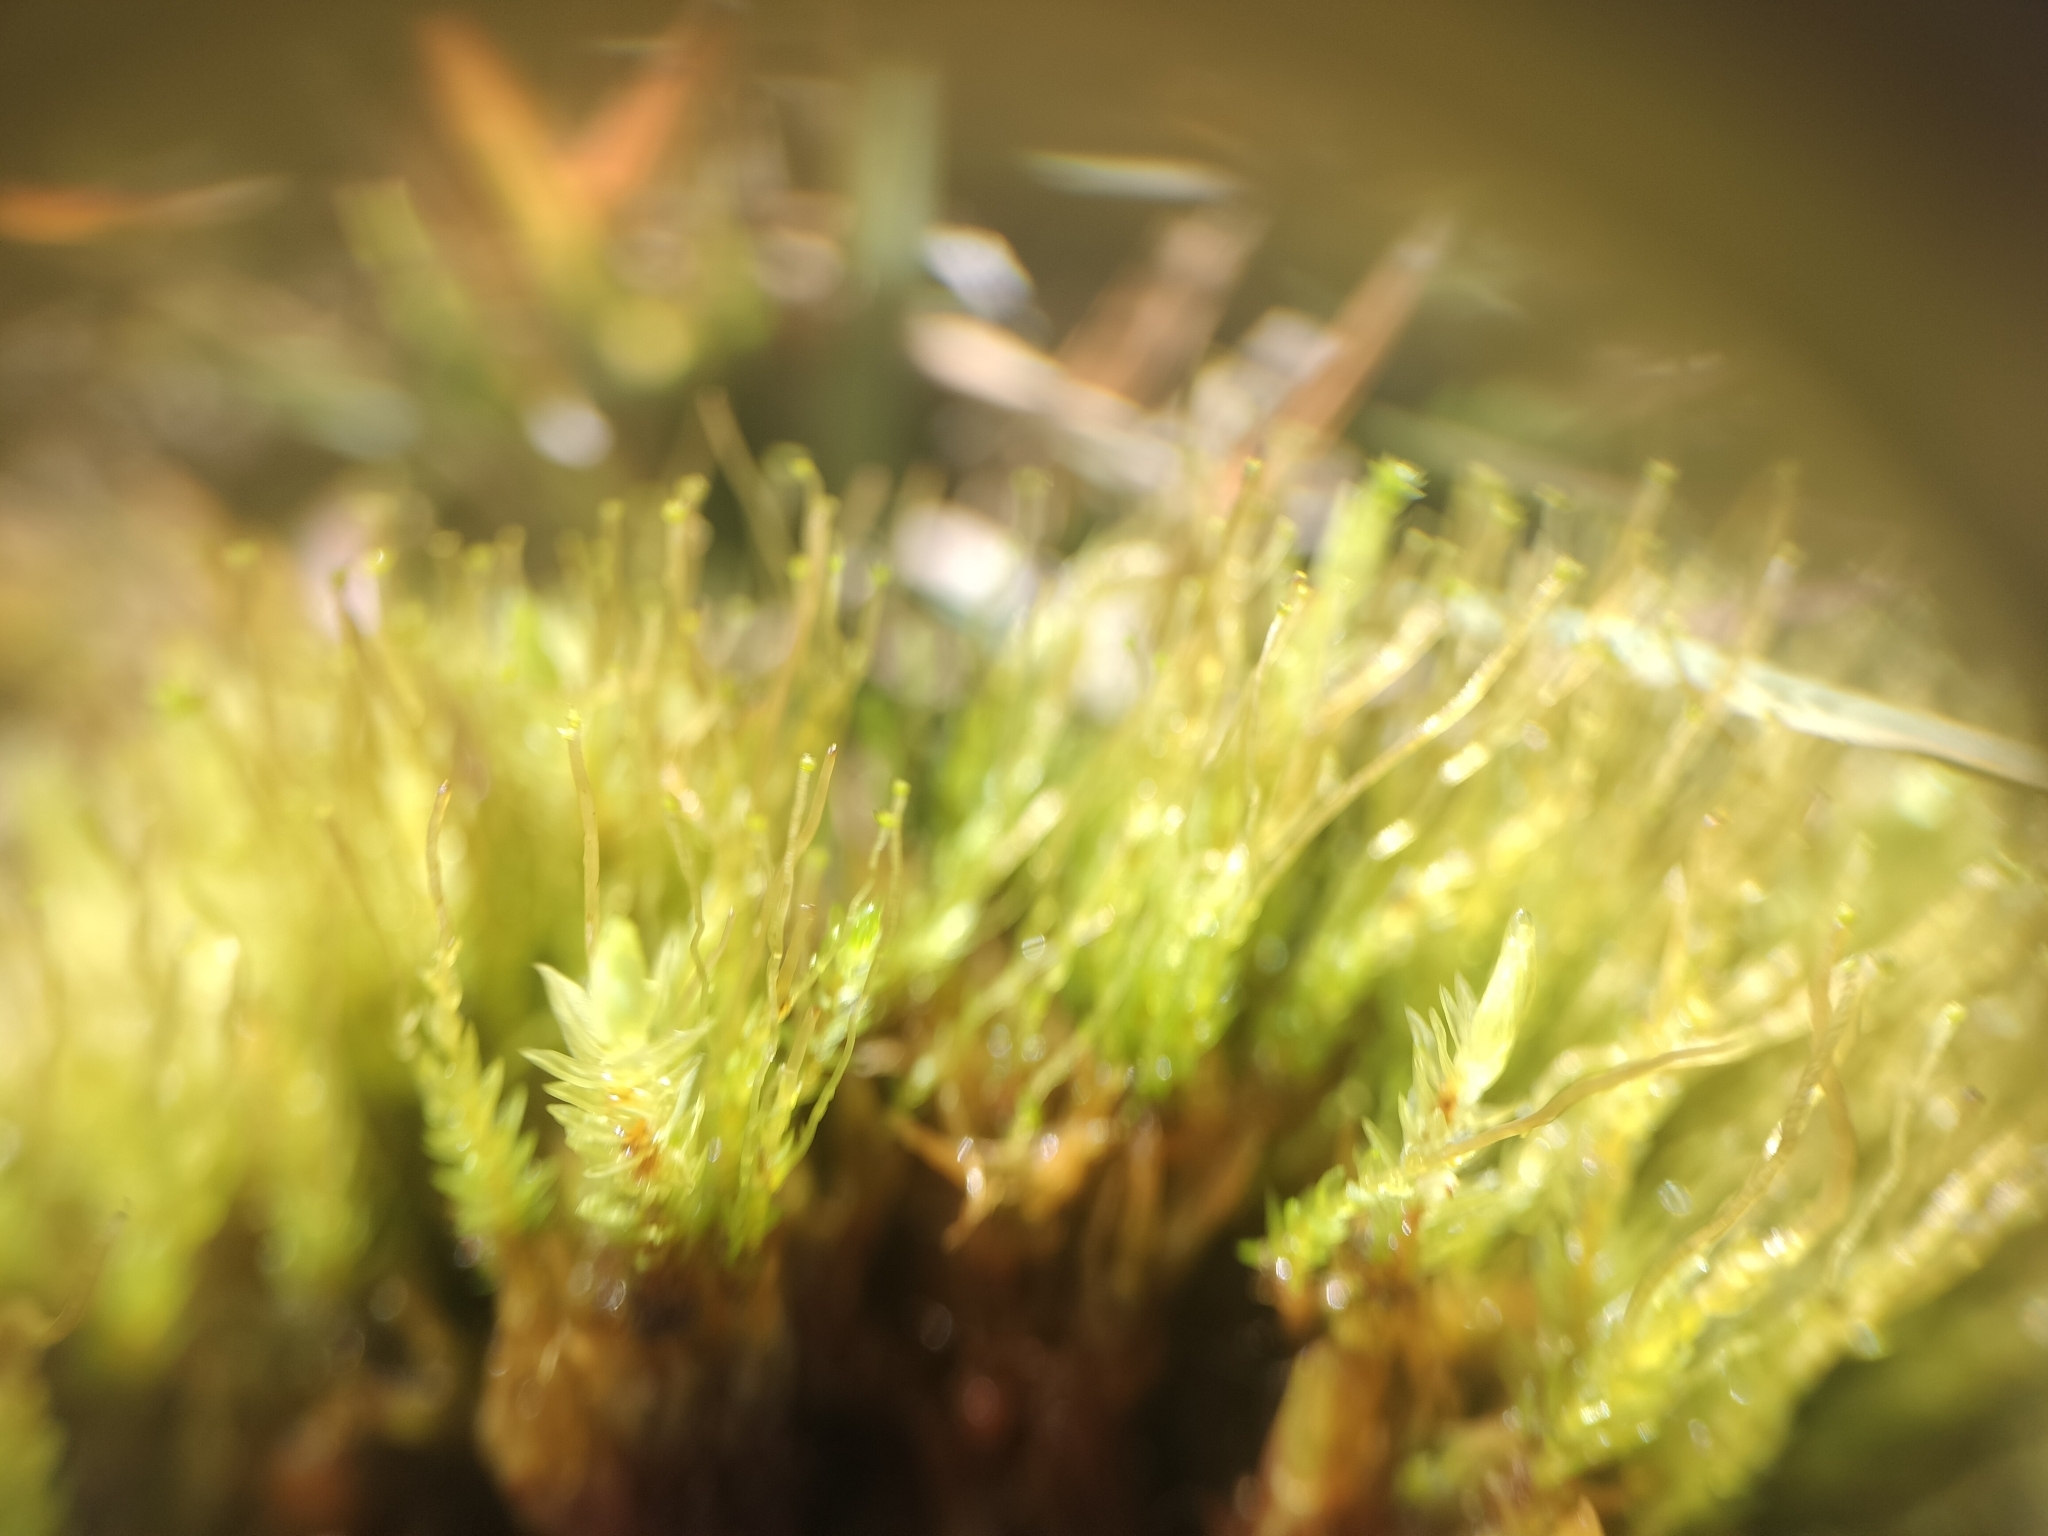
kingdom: Plantae
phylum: Bryophyta
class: Bryopsida
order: Aulacomniales
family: Aulacomniaceae
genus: Aulacomnium
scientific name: Aulacomnium androgynum
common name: Little groove moss
